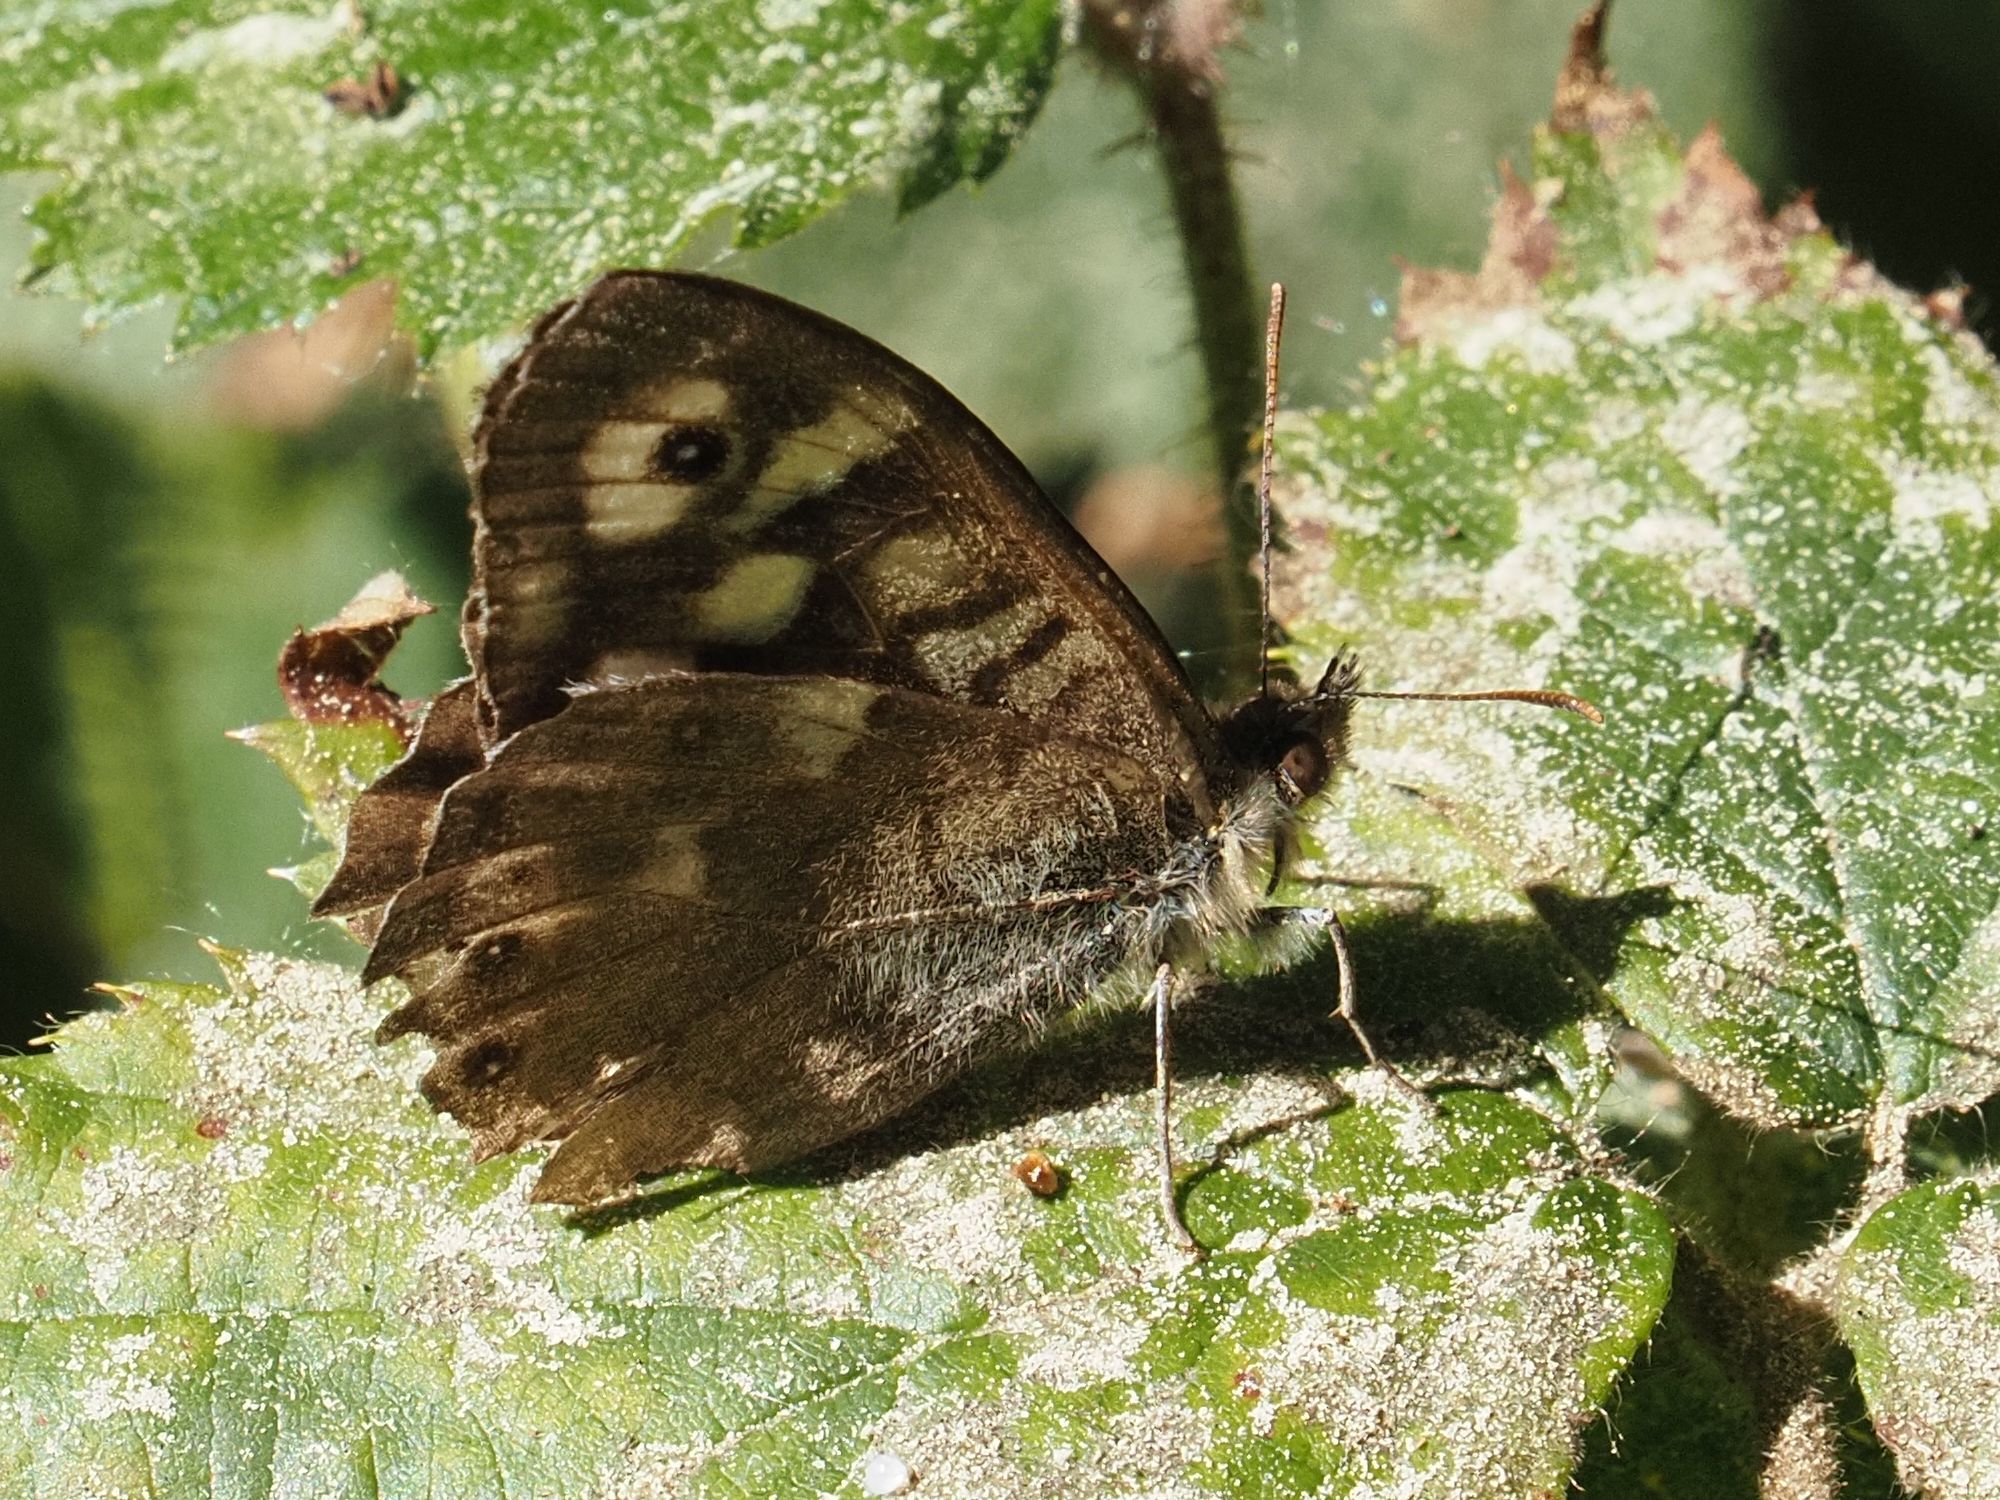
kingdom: Animalia
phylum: Arthropoda
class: Insecta
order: Lepidoptera
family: Nymphalidae
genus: Pararge
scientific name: Pararge aegeria
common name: Speckled wood
